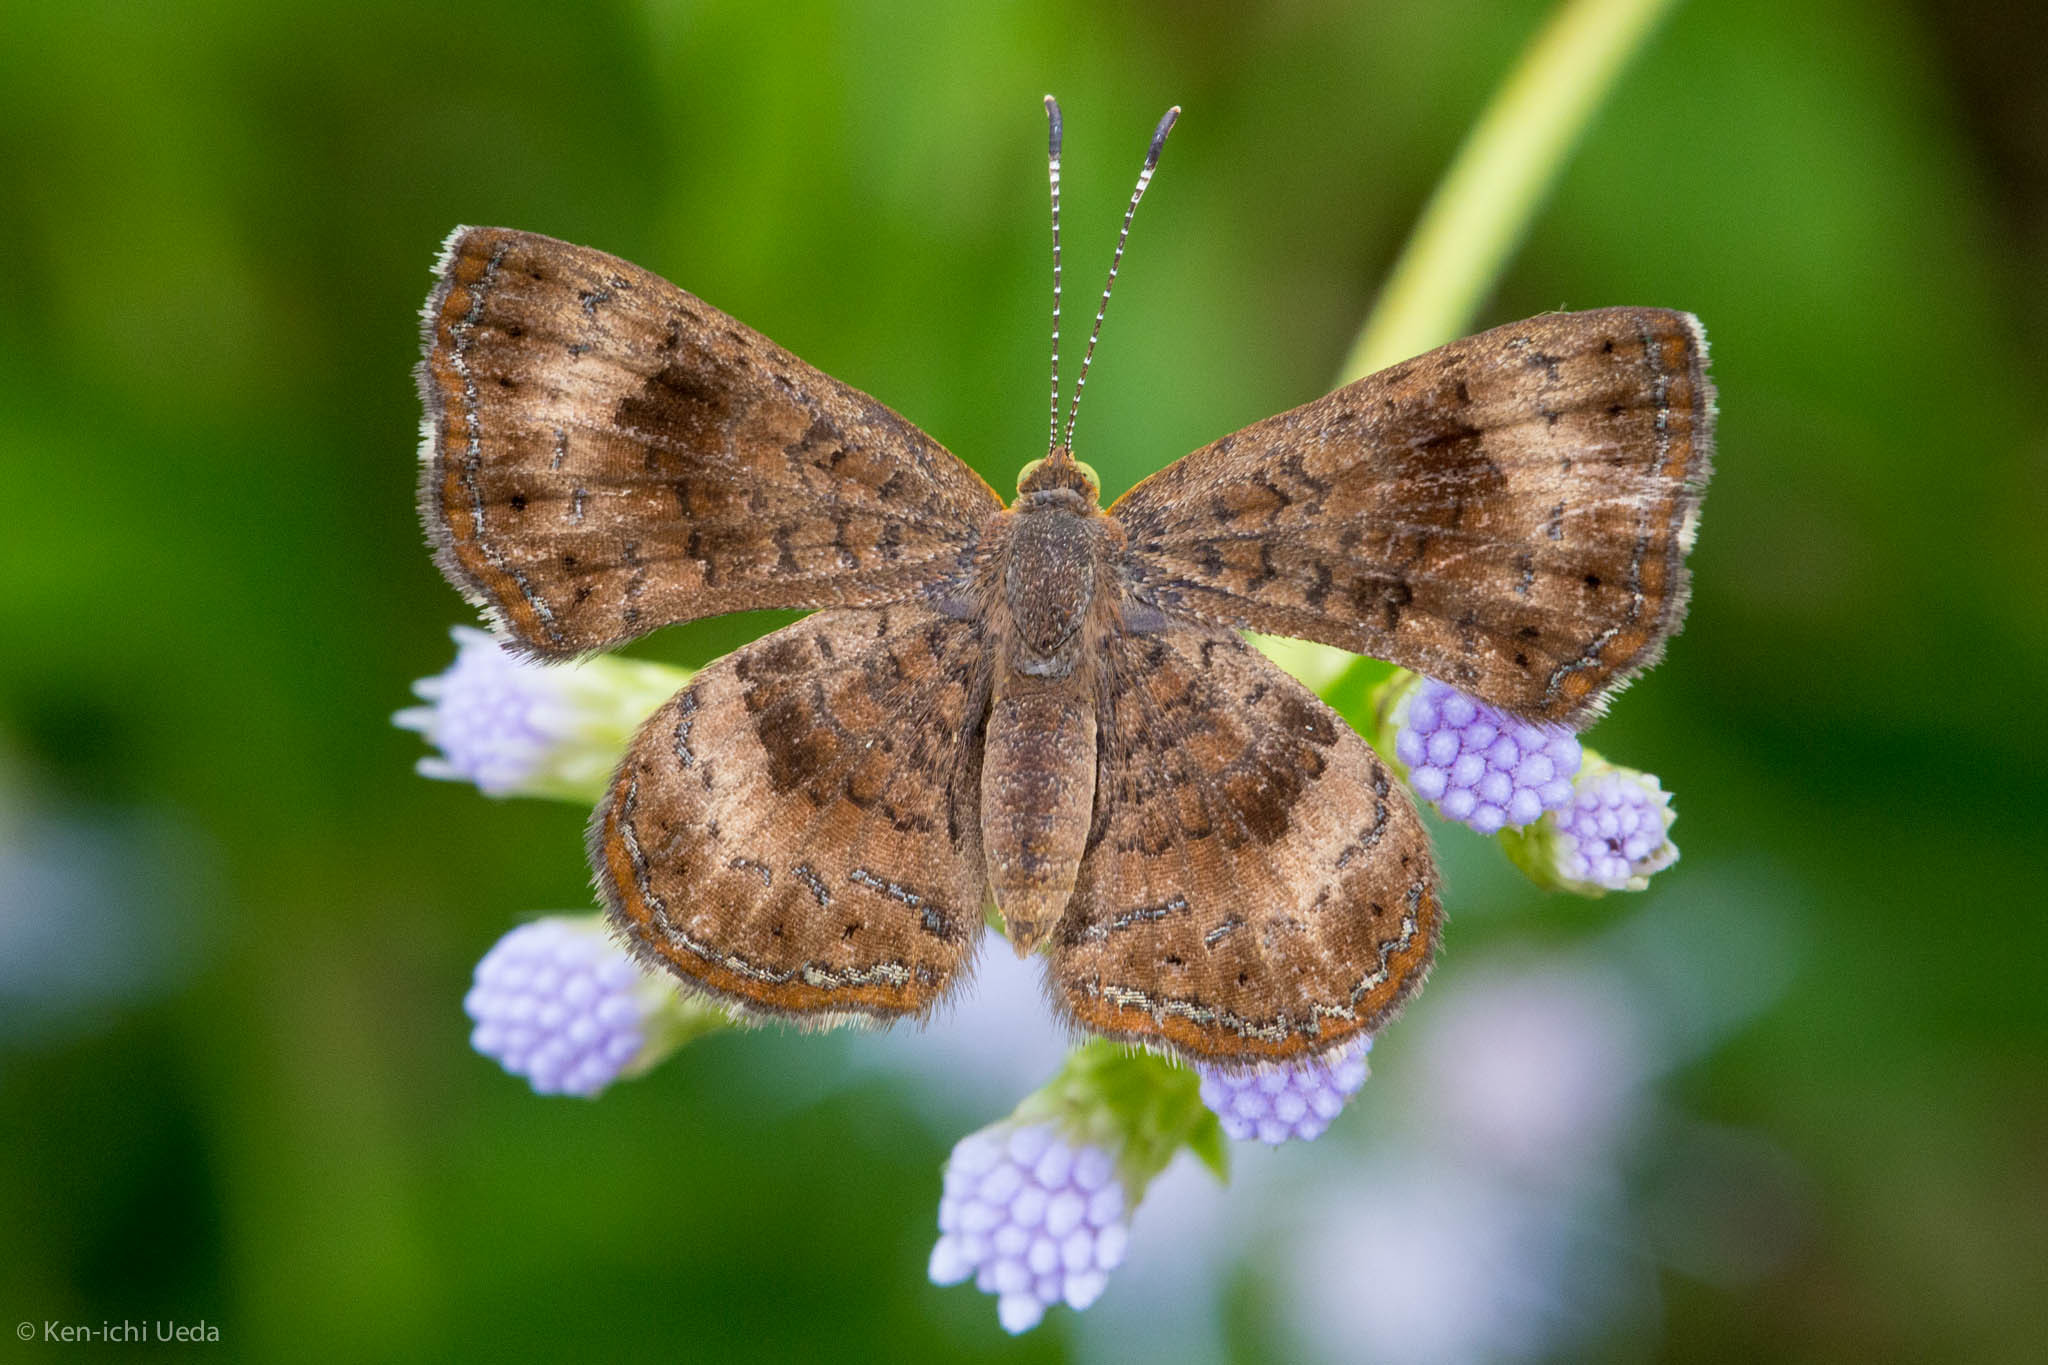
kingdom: Animalia
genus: Calephelis
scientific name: Calephelis nemesis
